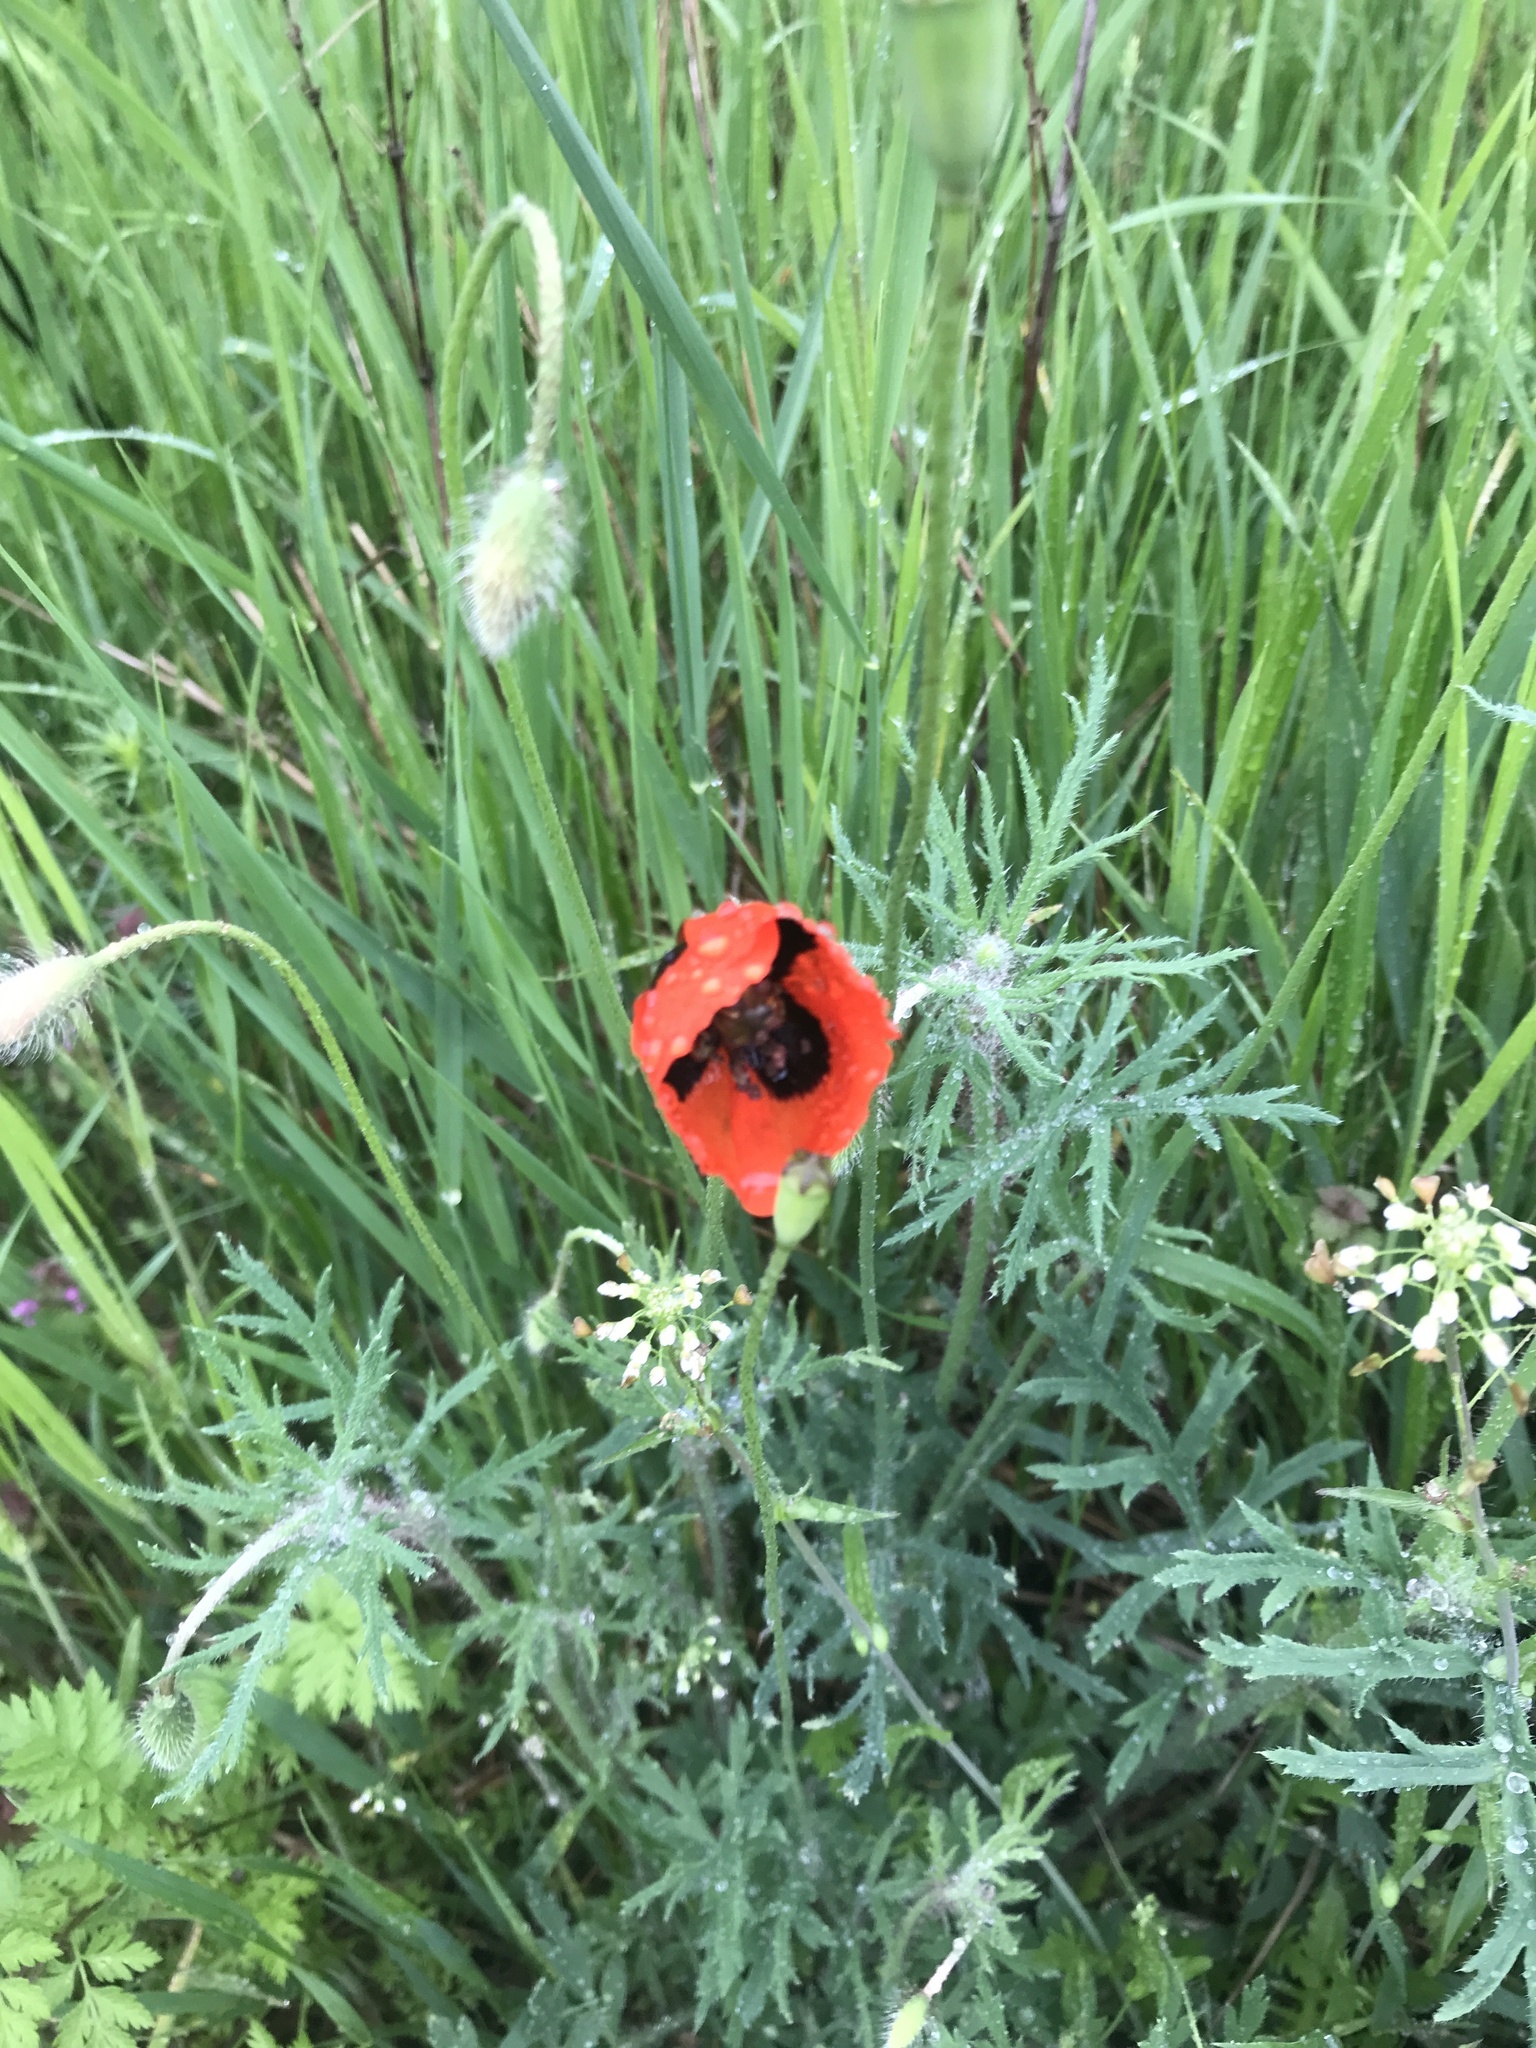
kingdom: Plantae
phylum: Tracheophyta
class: Magnoliopsida
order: Ranunculales
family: Papaveraceae
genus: Papaver
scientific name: Papaver rhoeas
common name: Corn poppy
